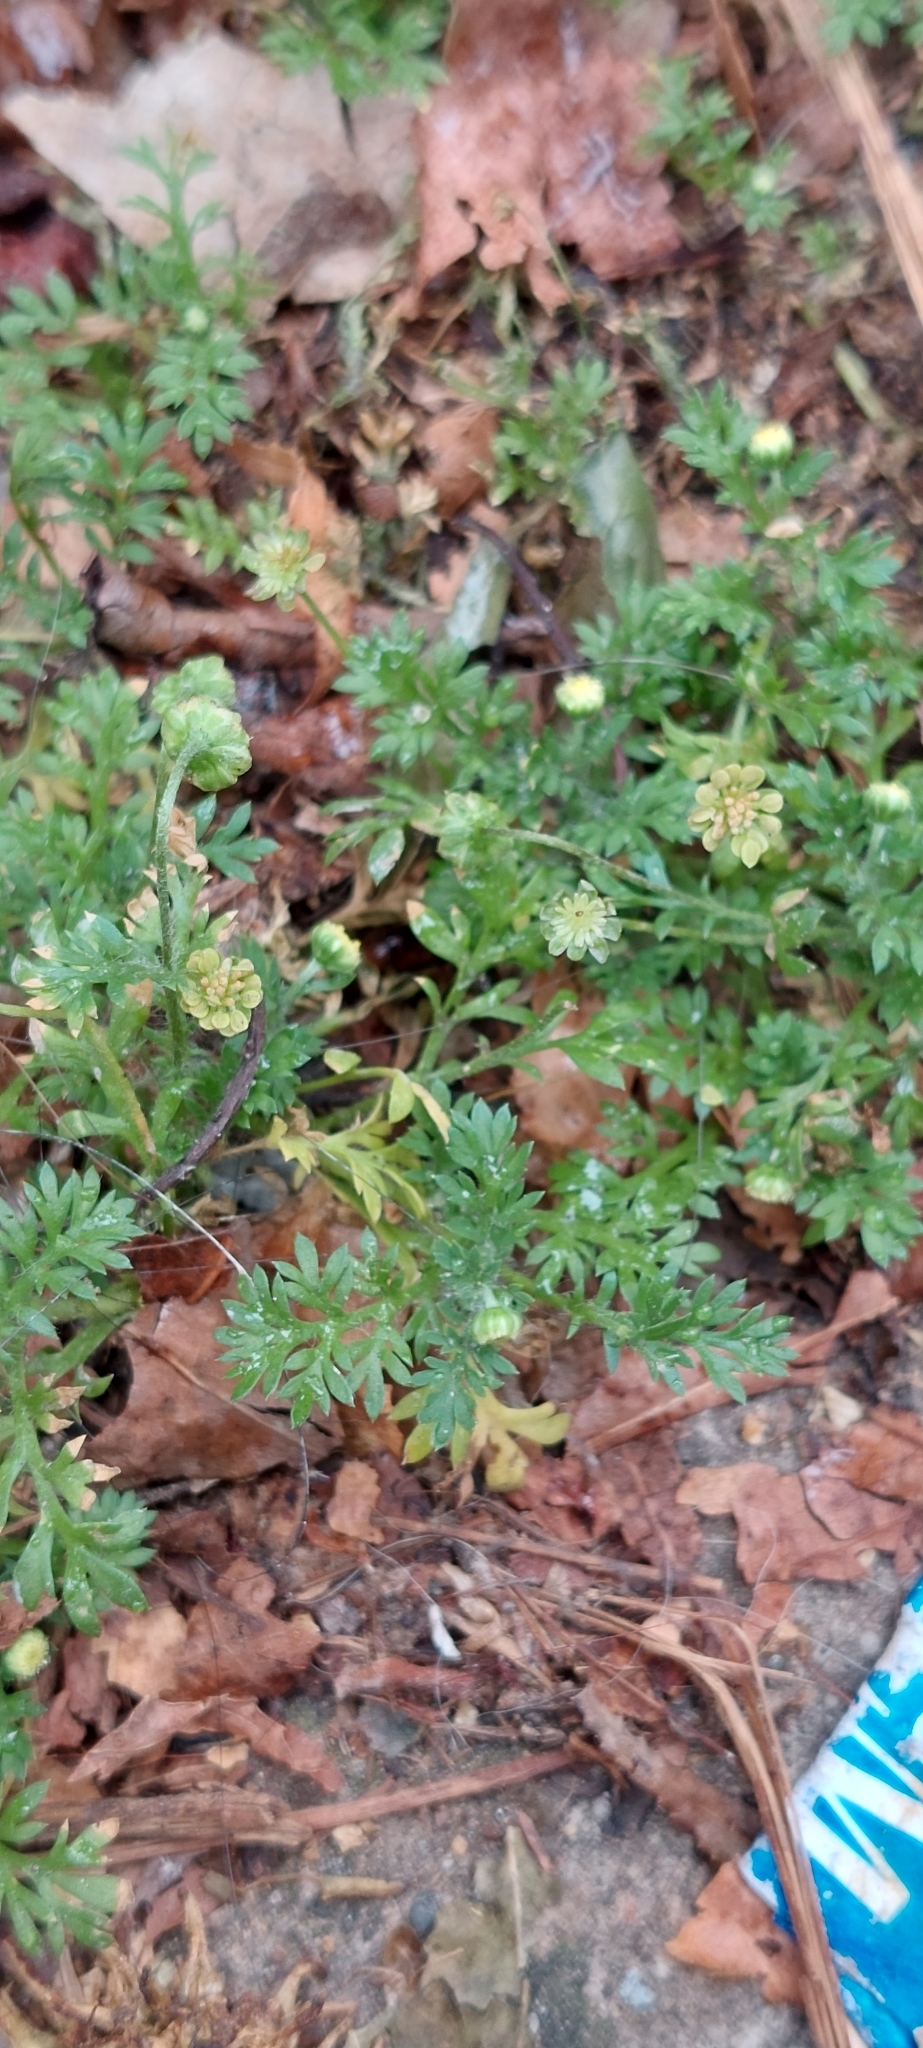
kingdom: Plantae
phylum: Tracheophyta
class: Magnoliopsida
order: Asterales
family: Asteraceae
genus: Cotula
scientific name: Cotula australis
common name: Australian waterbuttons
